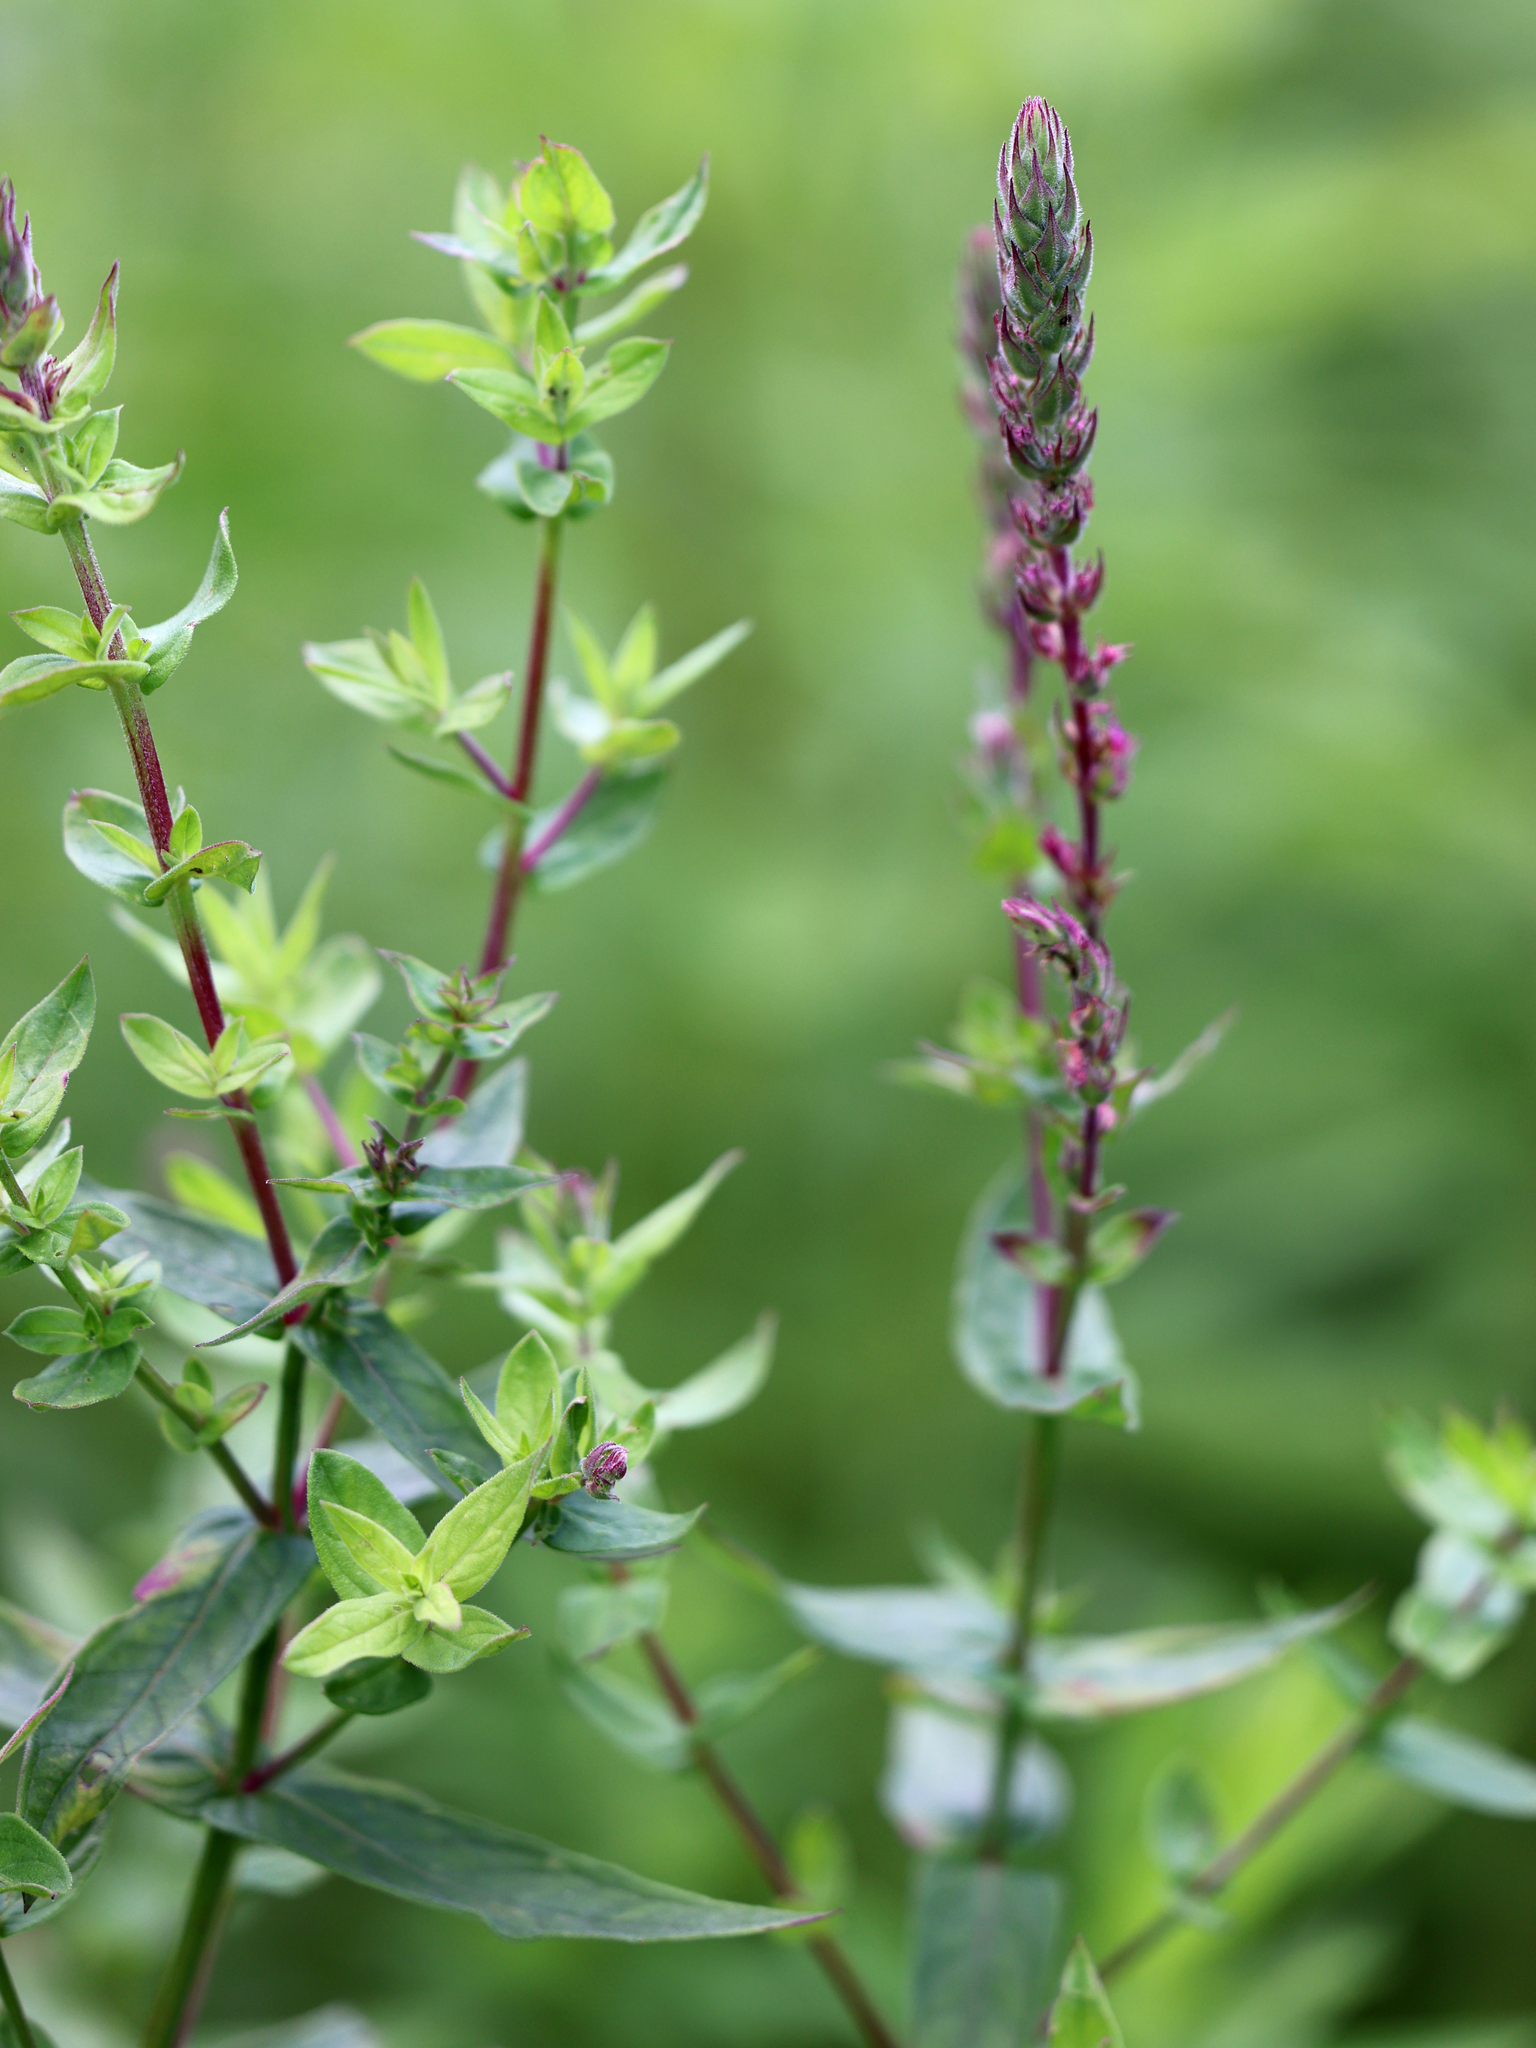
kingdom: Plantae
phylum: Tracheophyta
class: Magnoliopsida
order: Myrtales
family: Lythraceae
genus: Lythrum
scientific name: Lythrum salicaria
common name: Purple loosestrife
